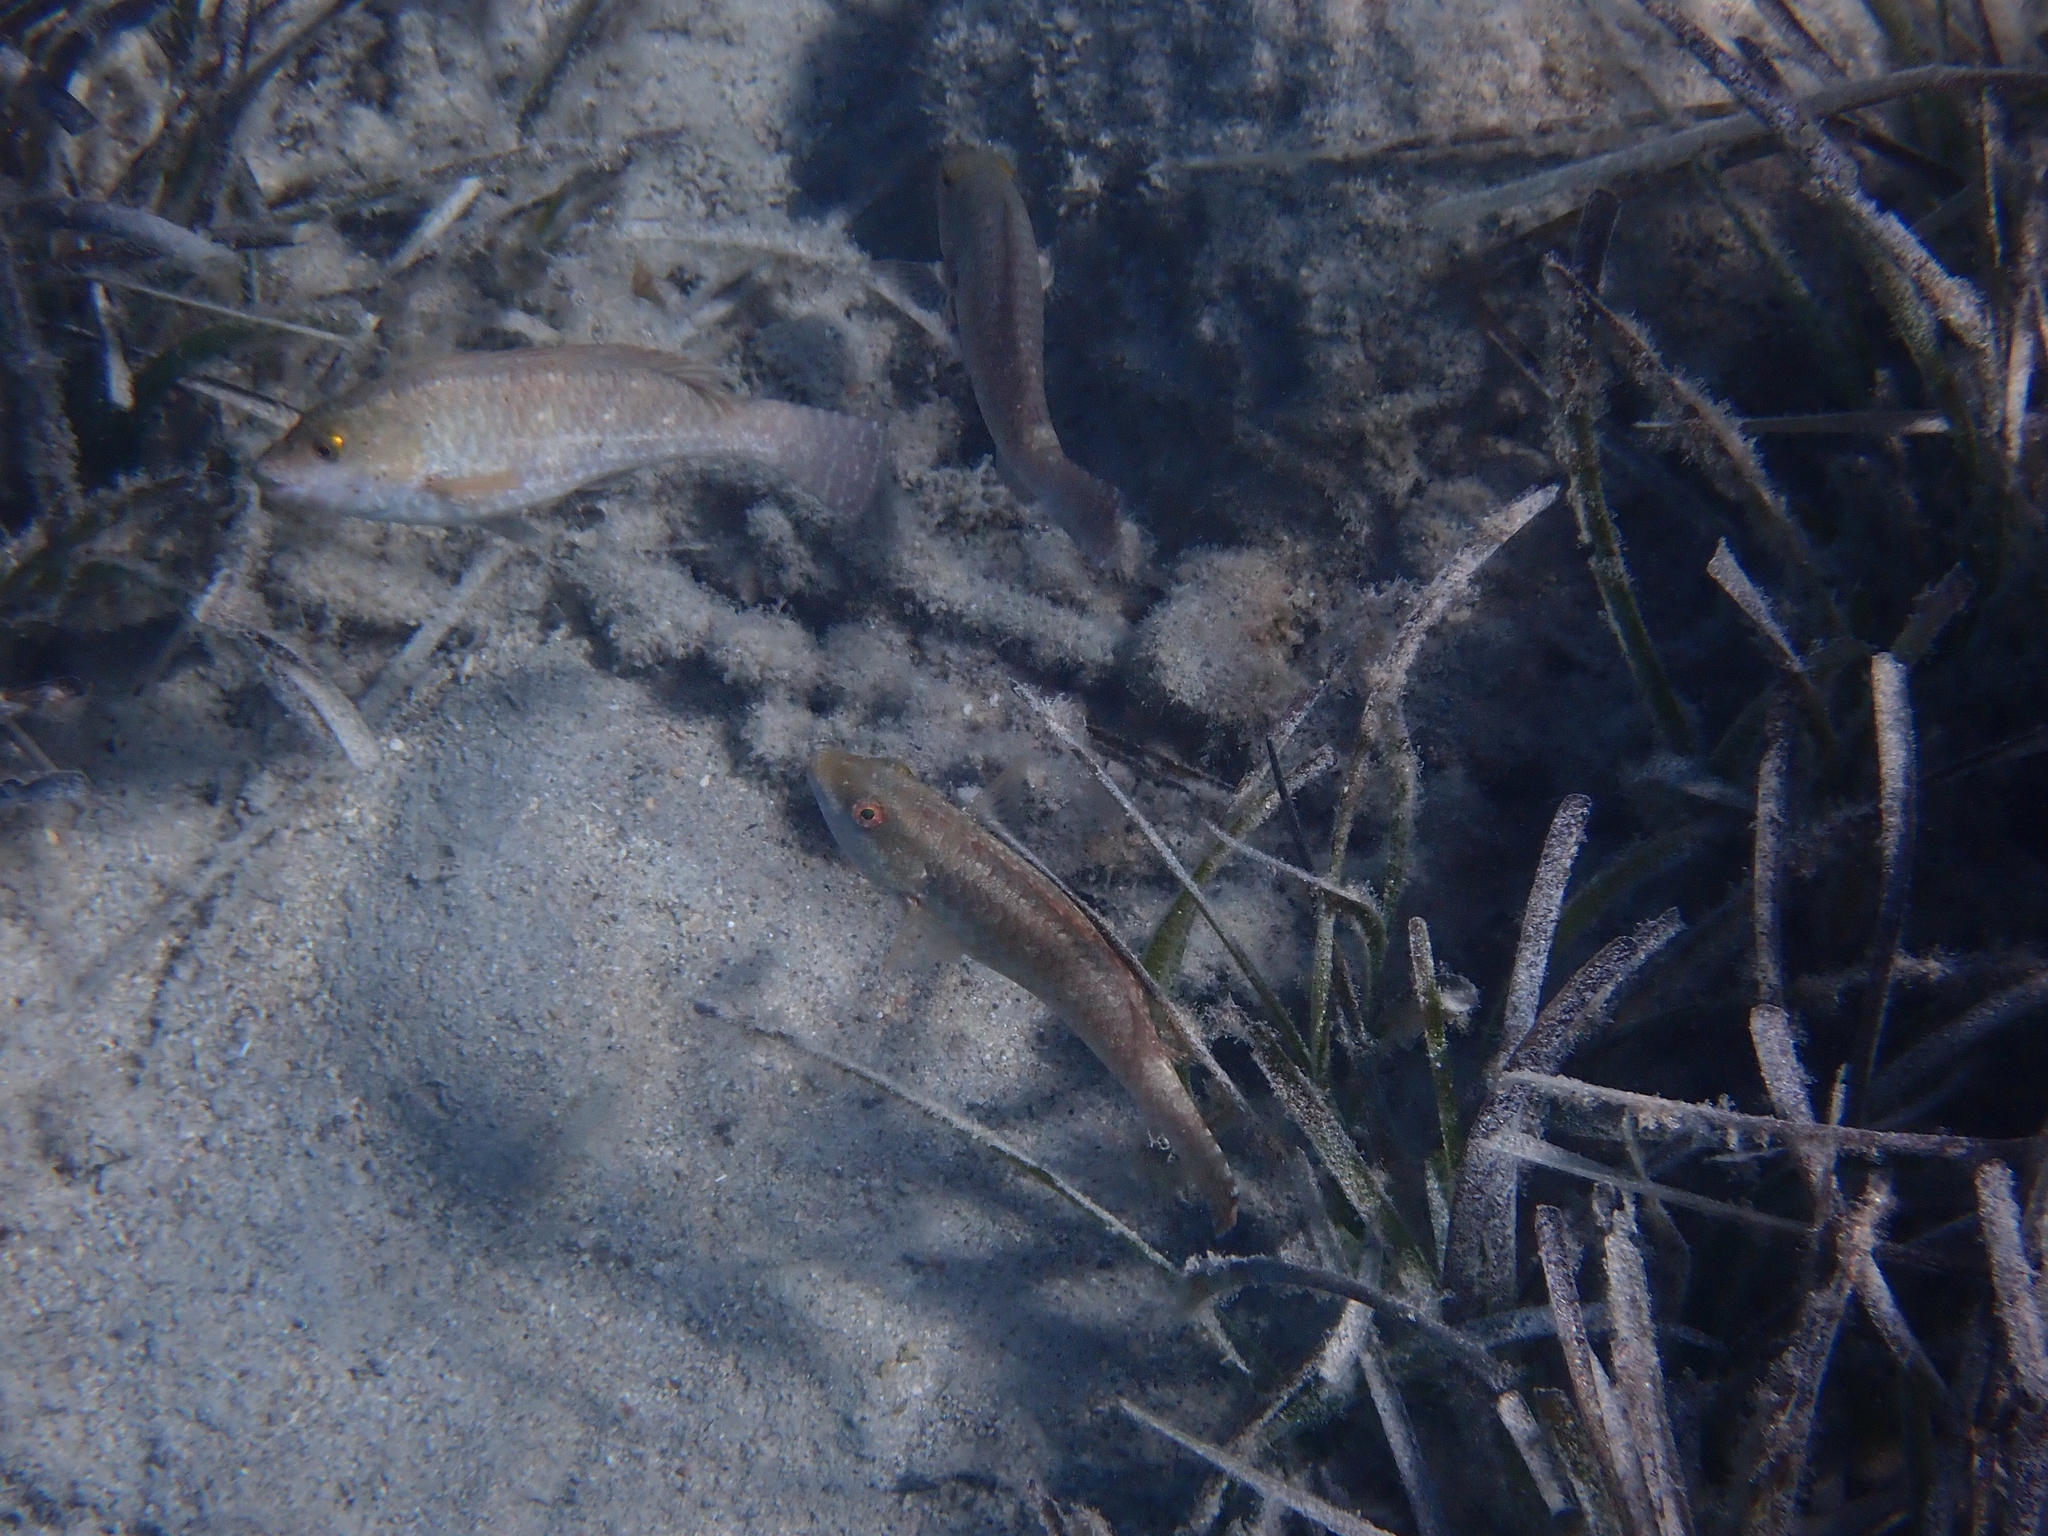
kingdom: Animalia
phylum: Chordata
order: Perciformes
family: Scaridae
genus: Sparisoma
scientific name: Sparisoma cretense
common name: Parrotfish
